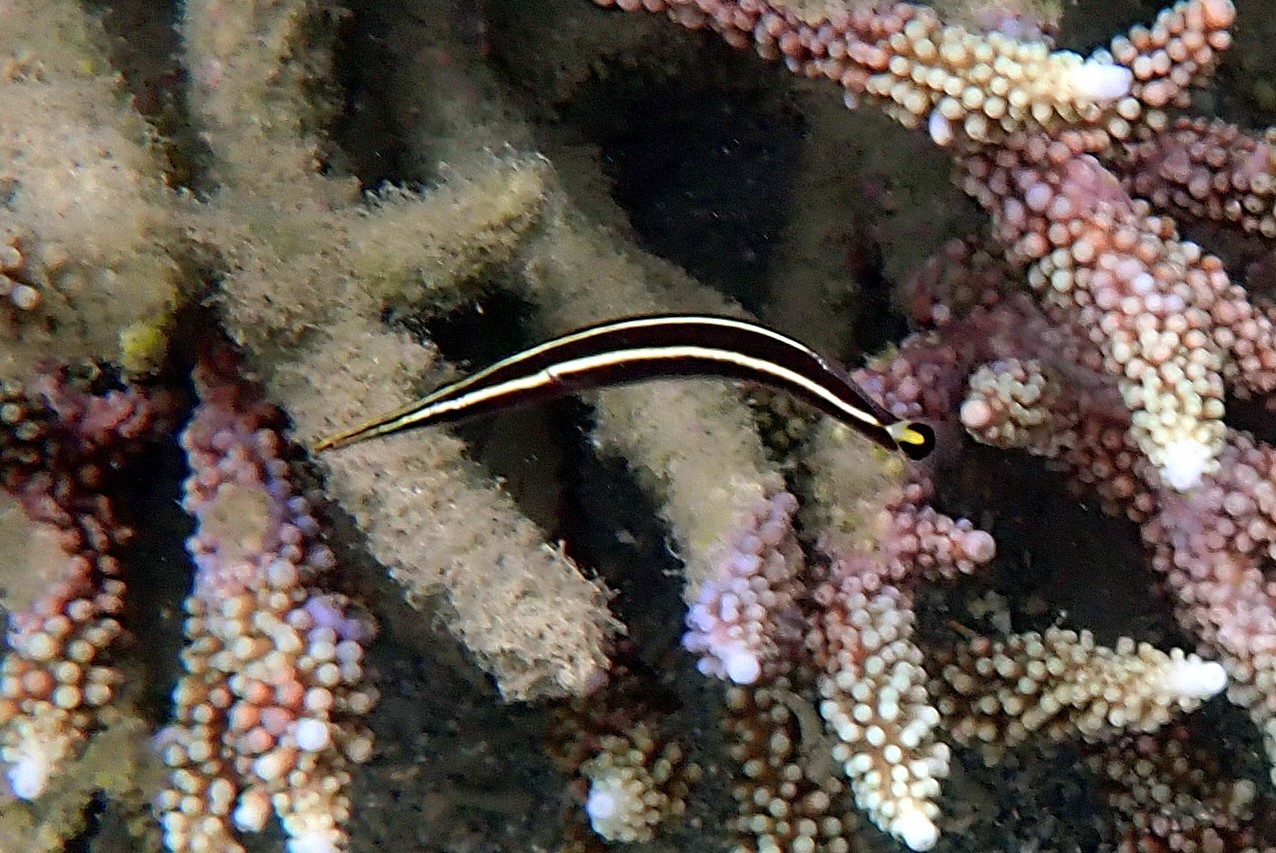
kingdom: Animalia
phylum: Chordata
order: Gobiesociformes
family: Gobiesocidae
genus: Diademichthys
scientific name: Diademichthys lineatus
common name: Urchin clingfish
